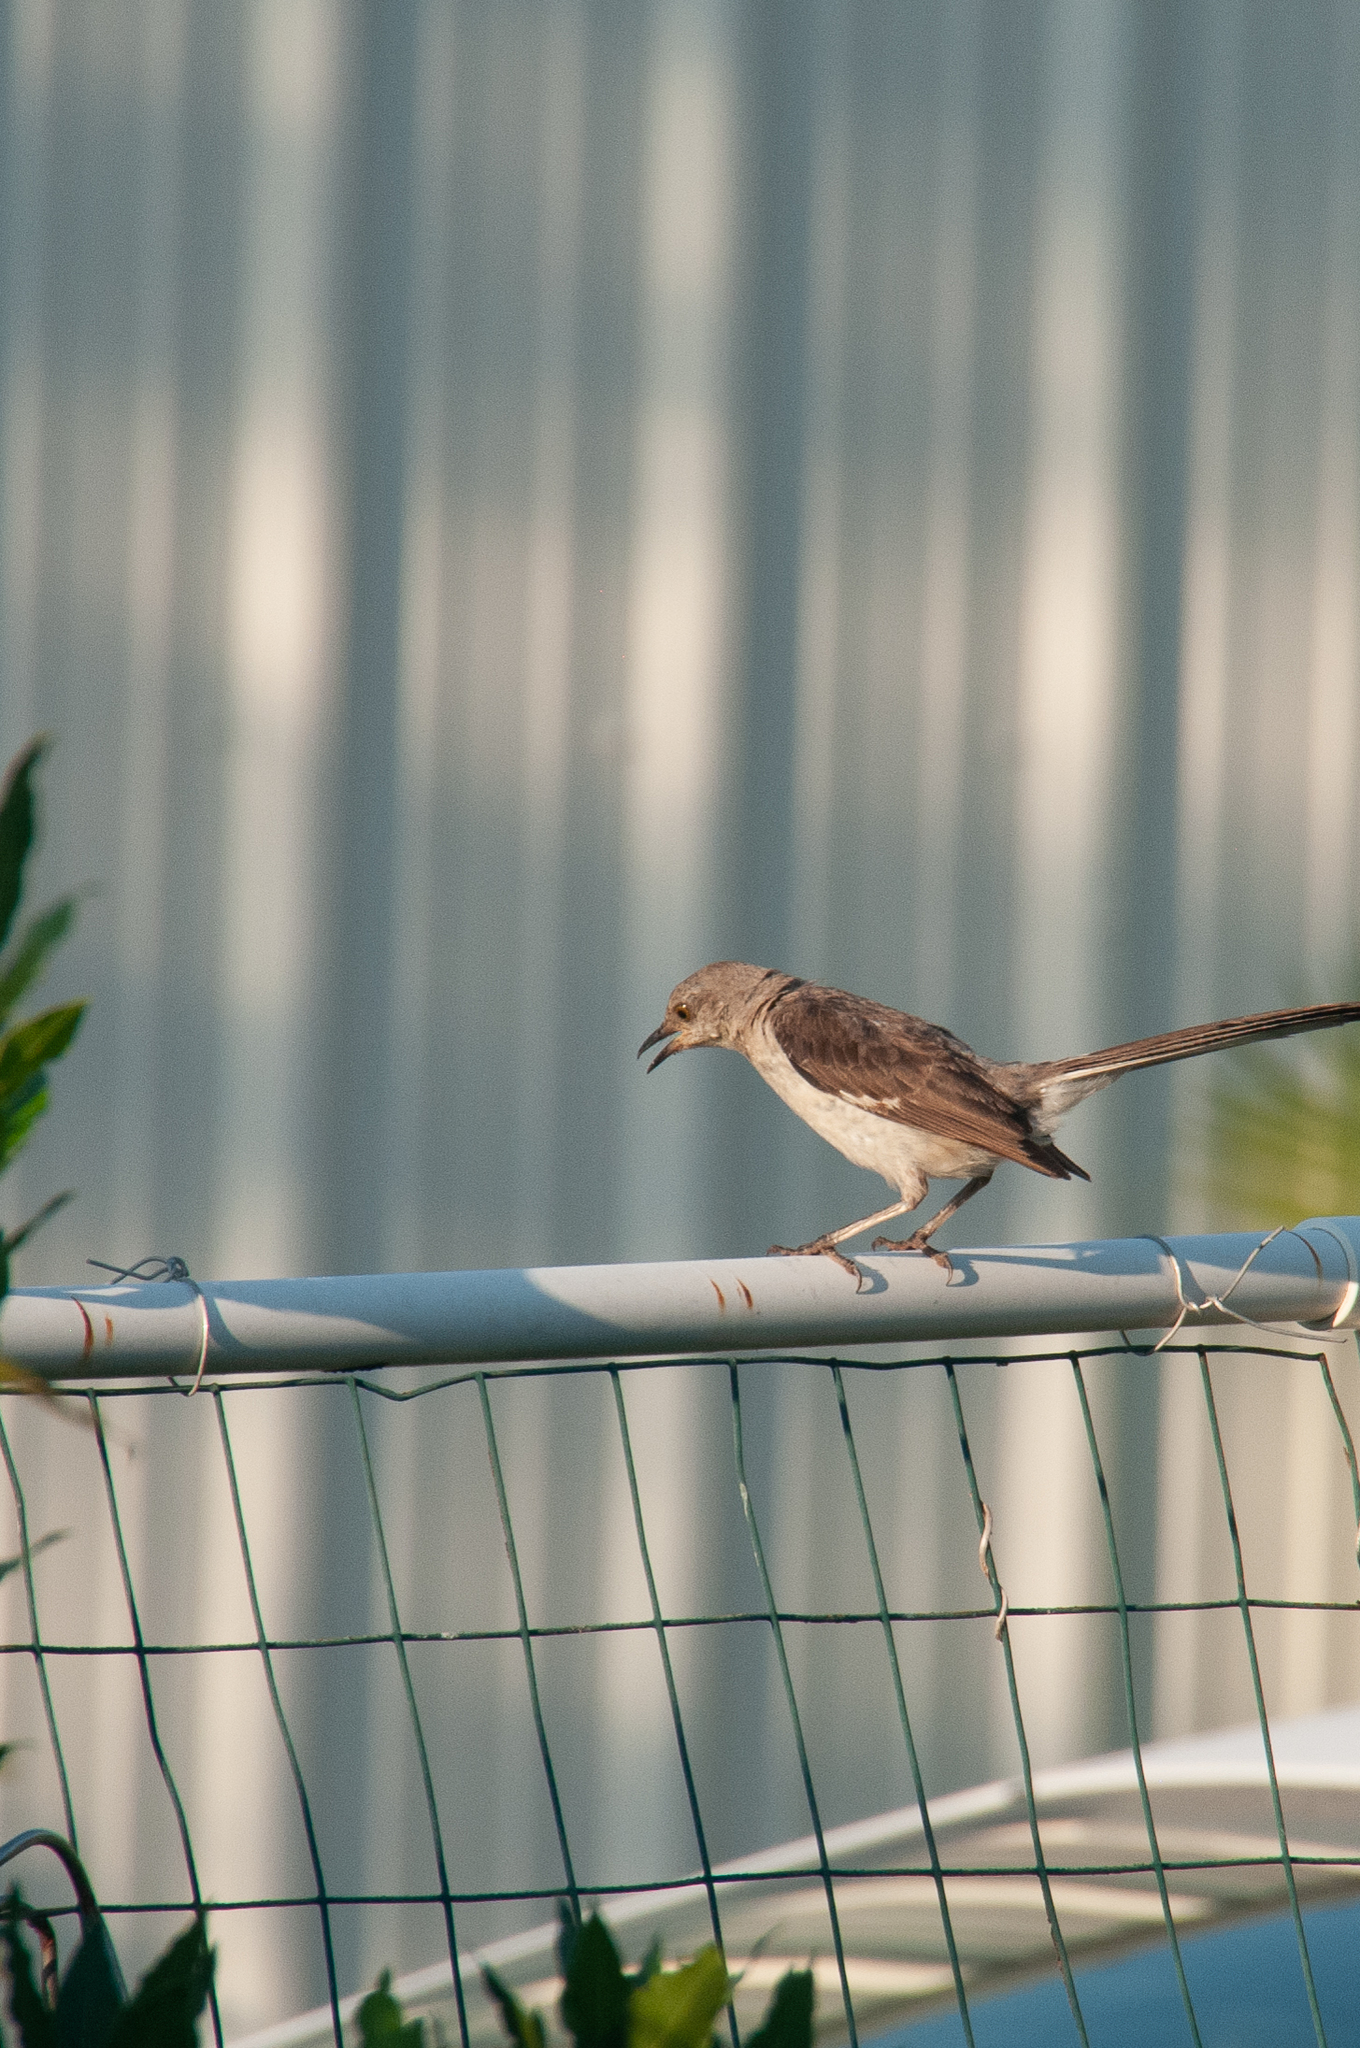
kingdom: Animalia
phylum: Chordata
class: Aves
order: Passeriformes
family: Mimidae
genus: Mimus
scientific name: Mimus polyglottos
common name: Northern mockingbird
